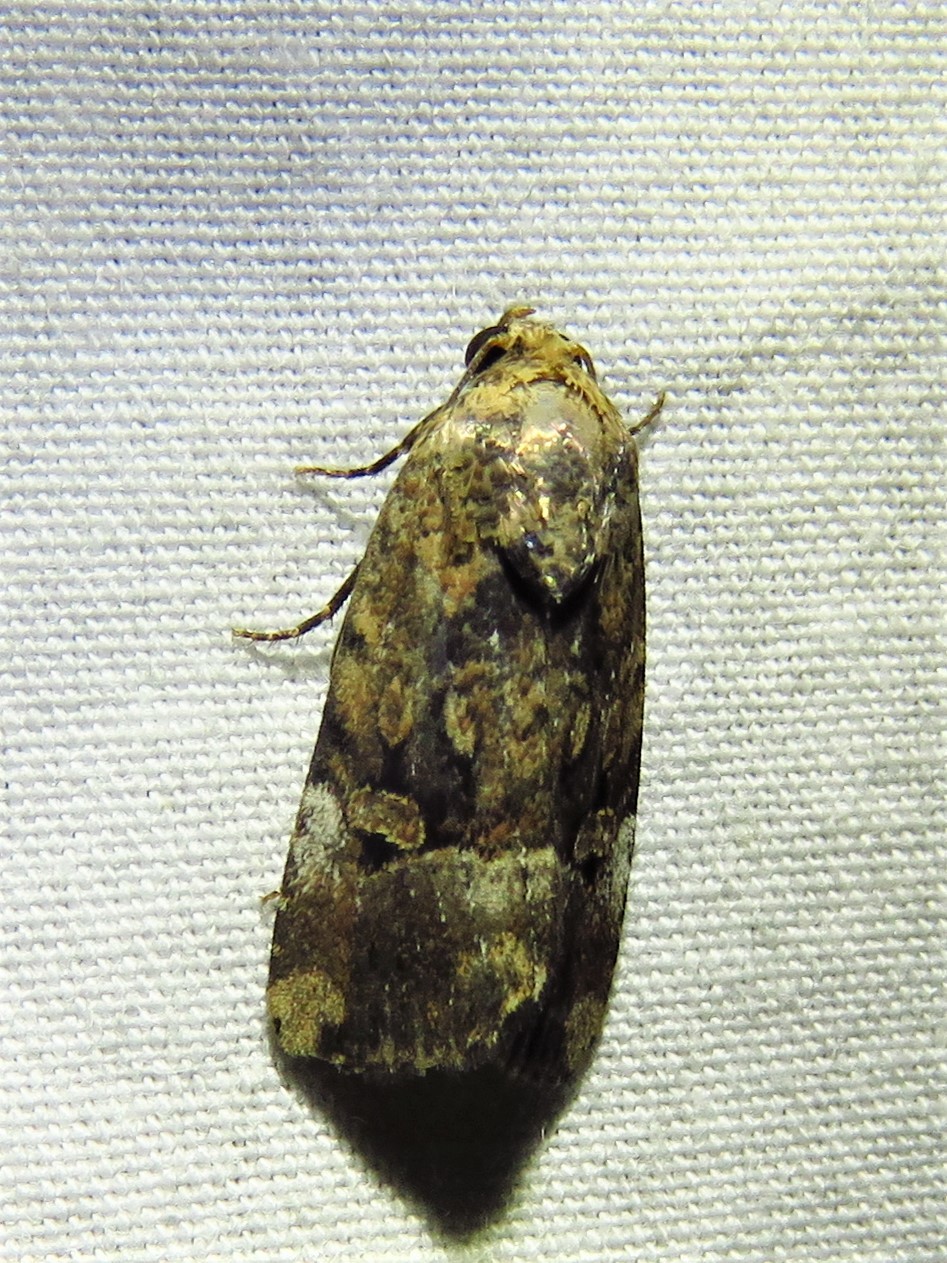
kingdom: Animalia
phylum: Arthropoda
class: Insecta
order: Lepidoptera
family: Noctuidae
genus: Elaphria
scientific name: Elaphria chalcedonia
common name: Chalcedony midget
